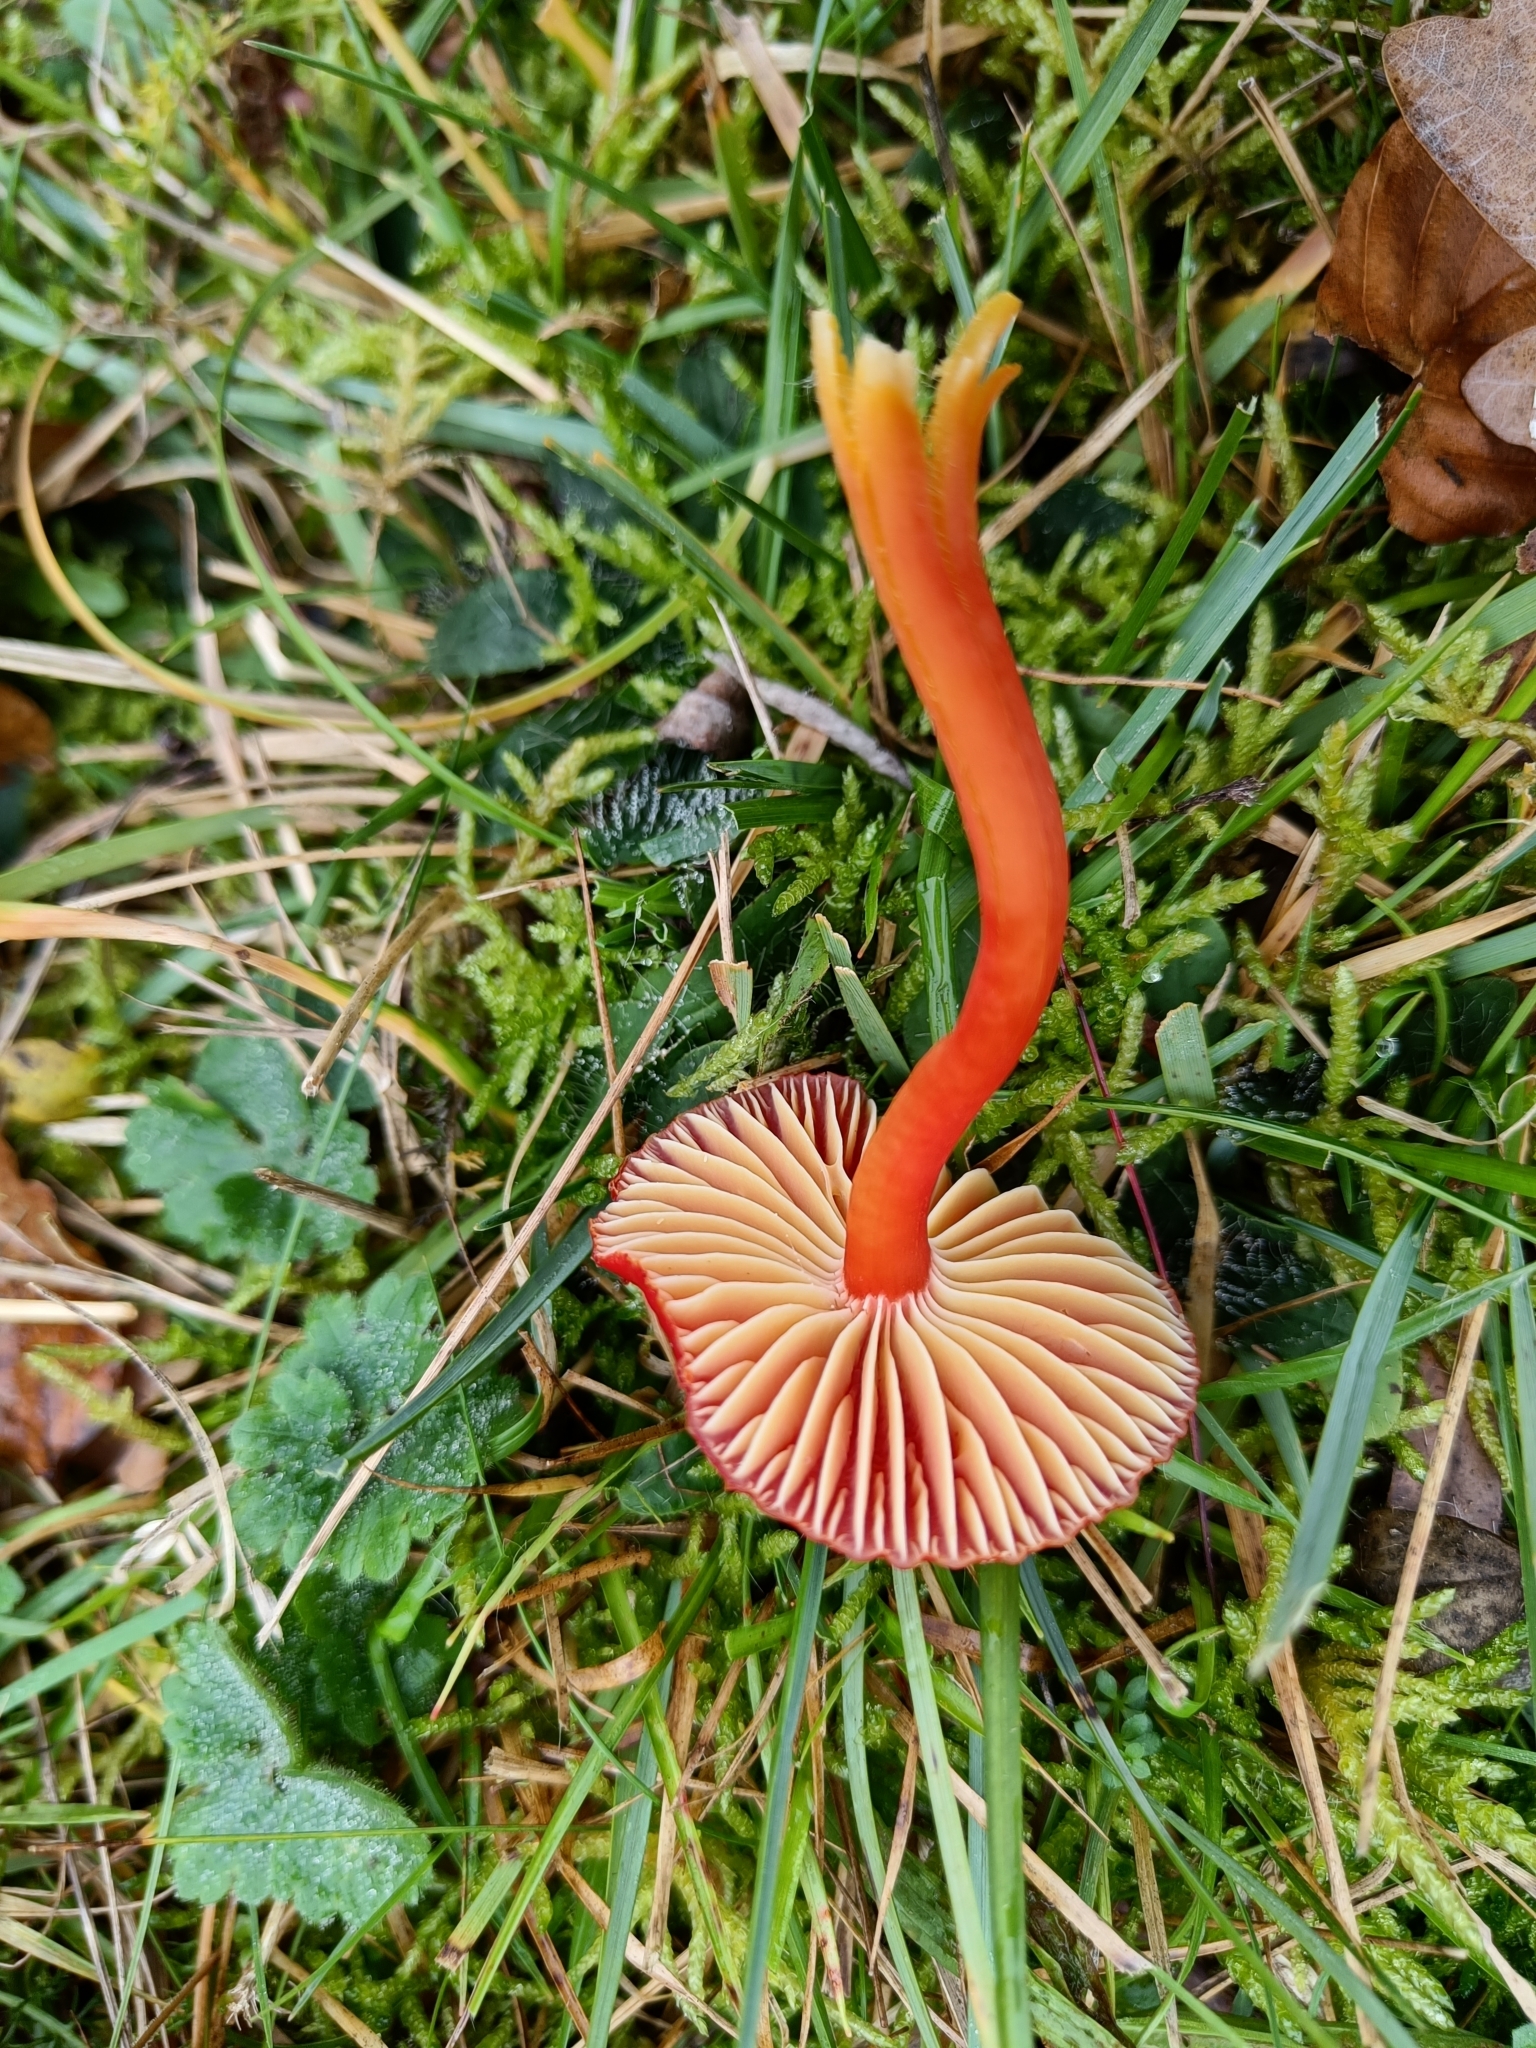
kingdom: Fungi
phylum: Basidiomycota
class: Agaricomycetes
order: Agaricales
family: Hygrophoraceae
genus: Hygrocybe
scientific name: Hygrocybe coccinea
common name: Scarlet hood
